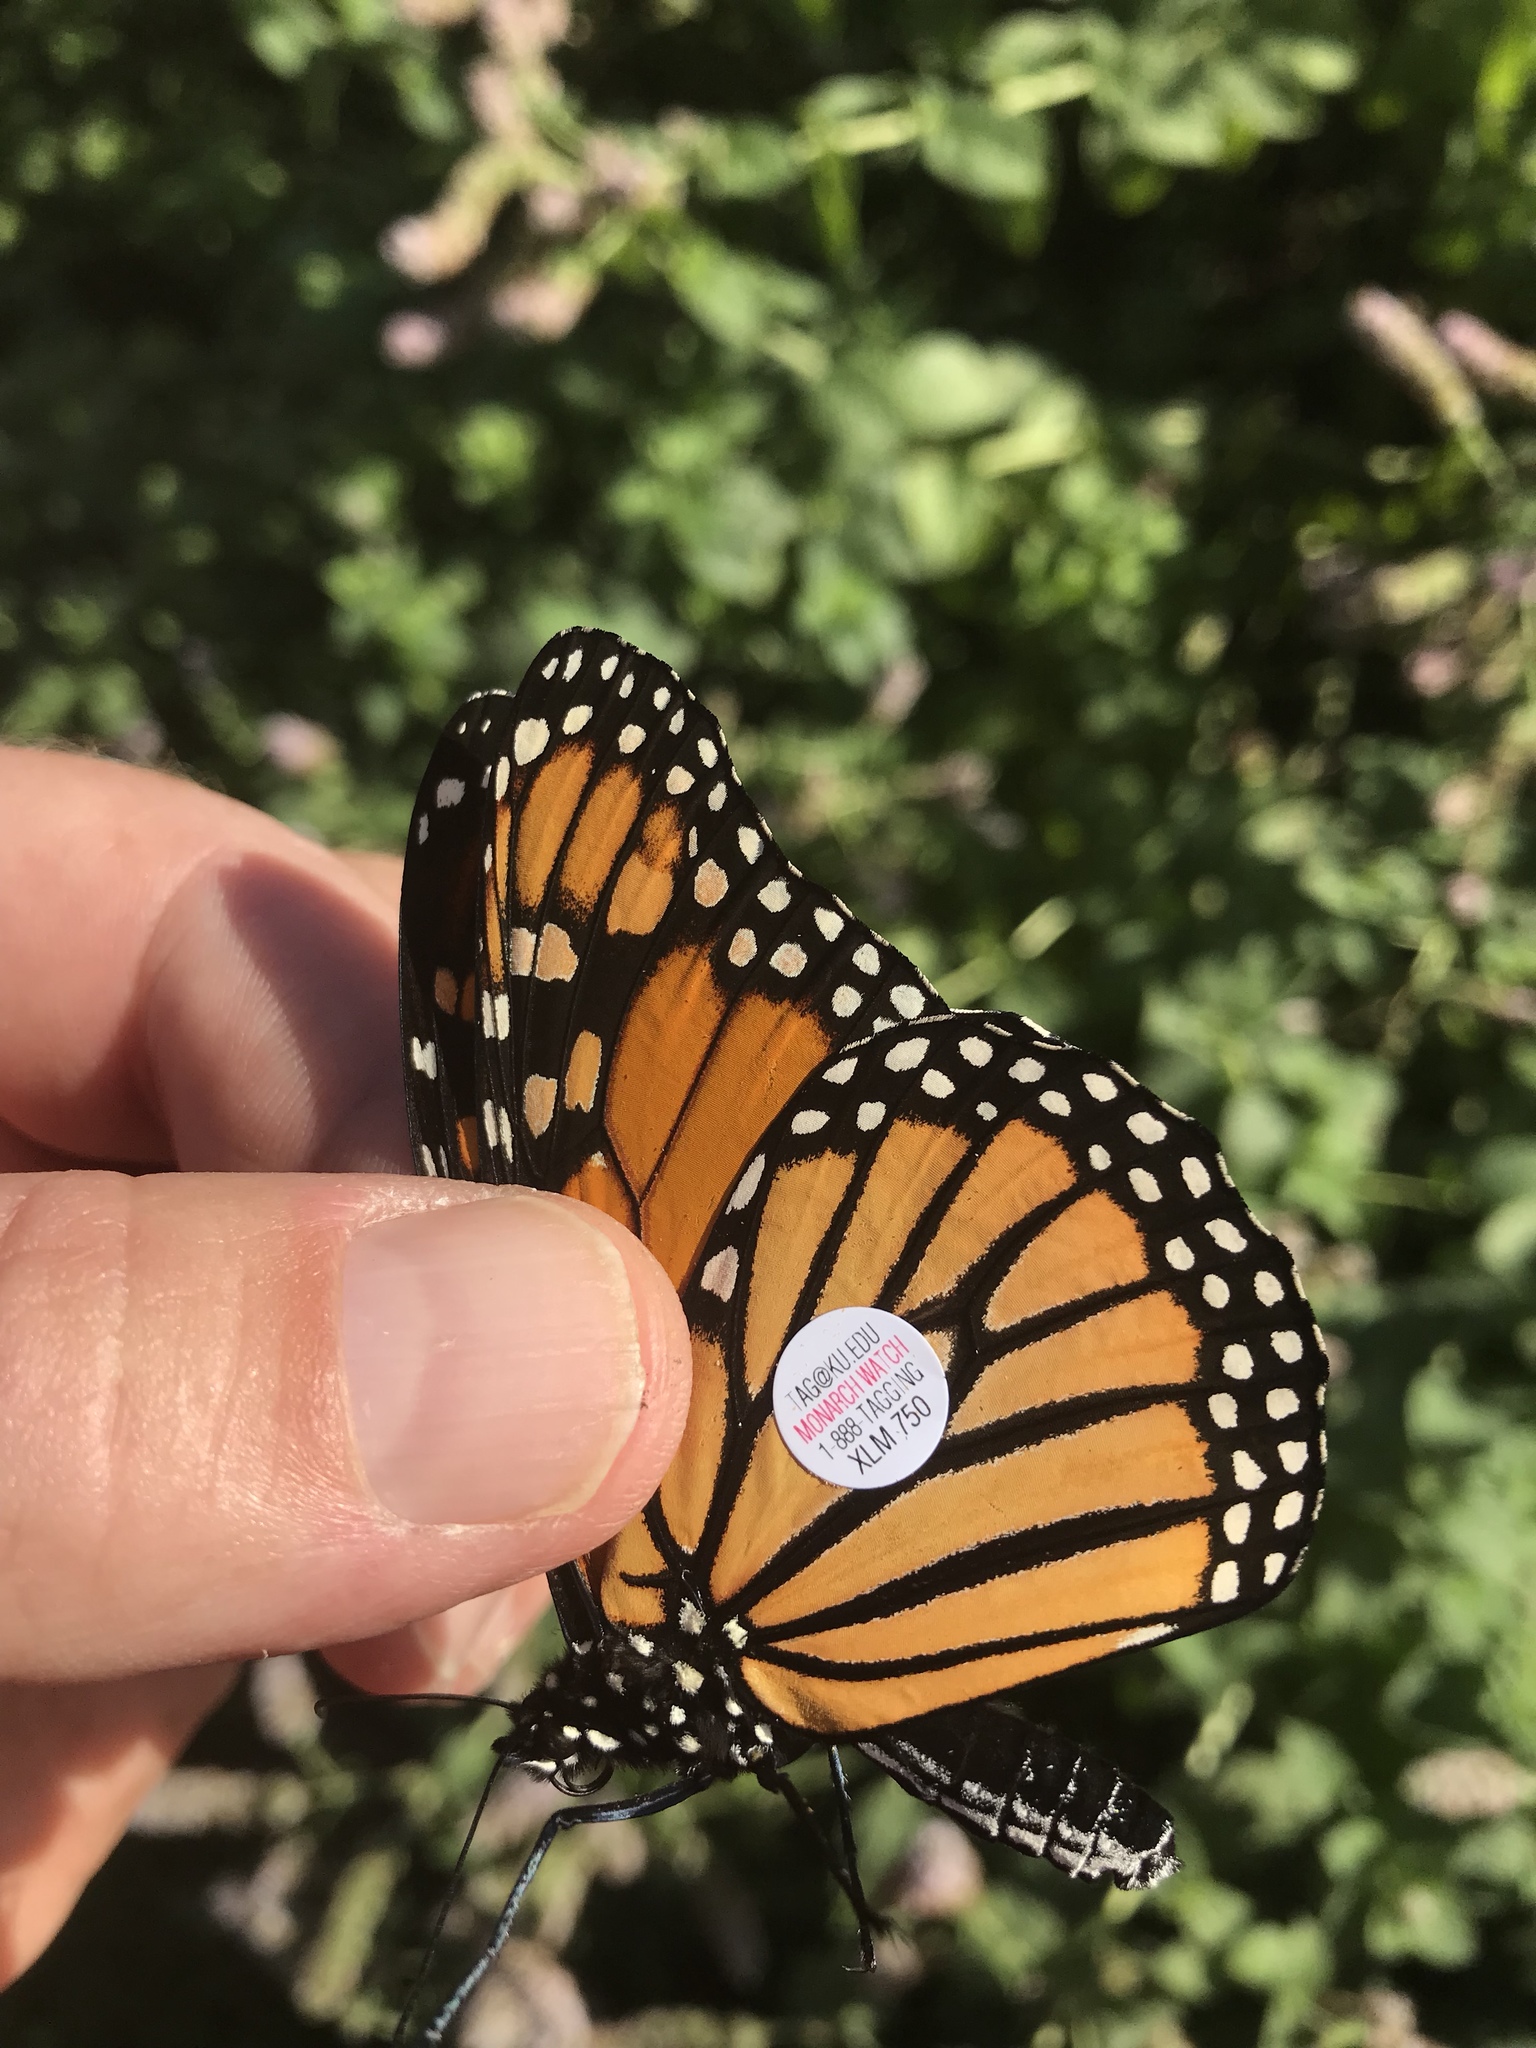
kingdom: Animalia
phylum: Arthropoda
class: Insecta
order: Lepidoptera
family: Nymphalidae
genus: Danaus
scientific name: Danaus plexippus
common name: Monarch
